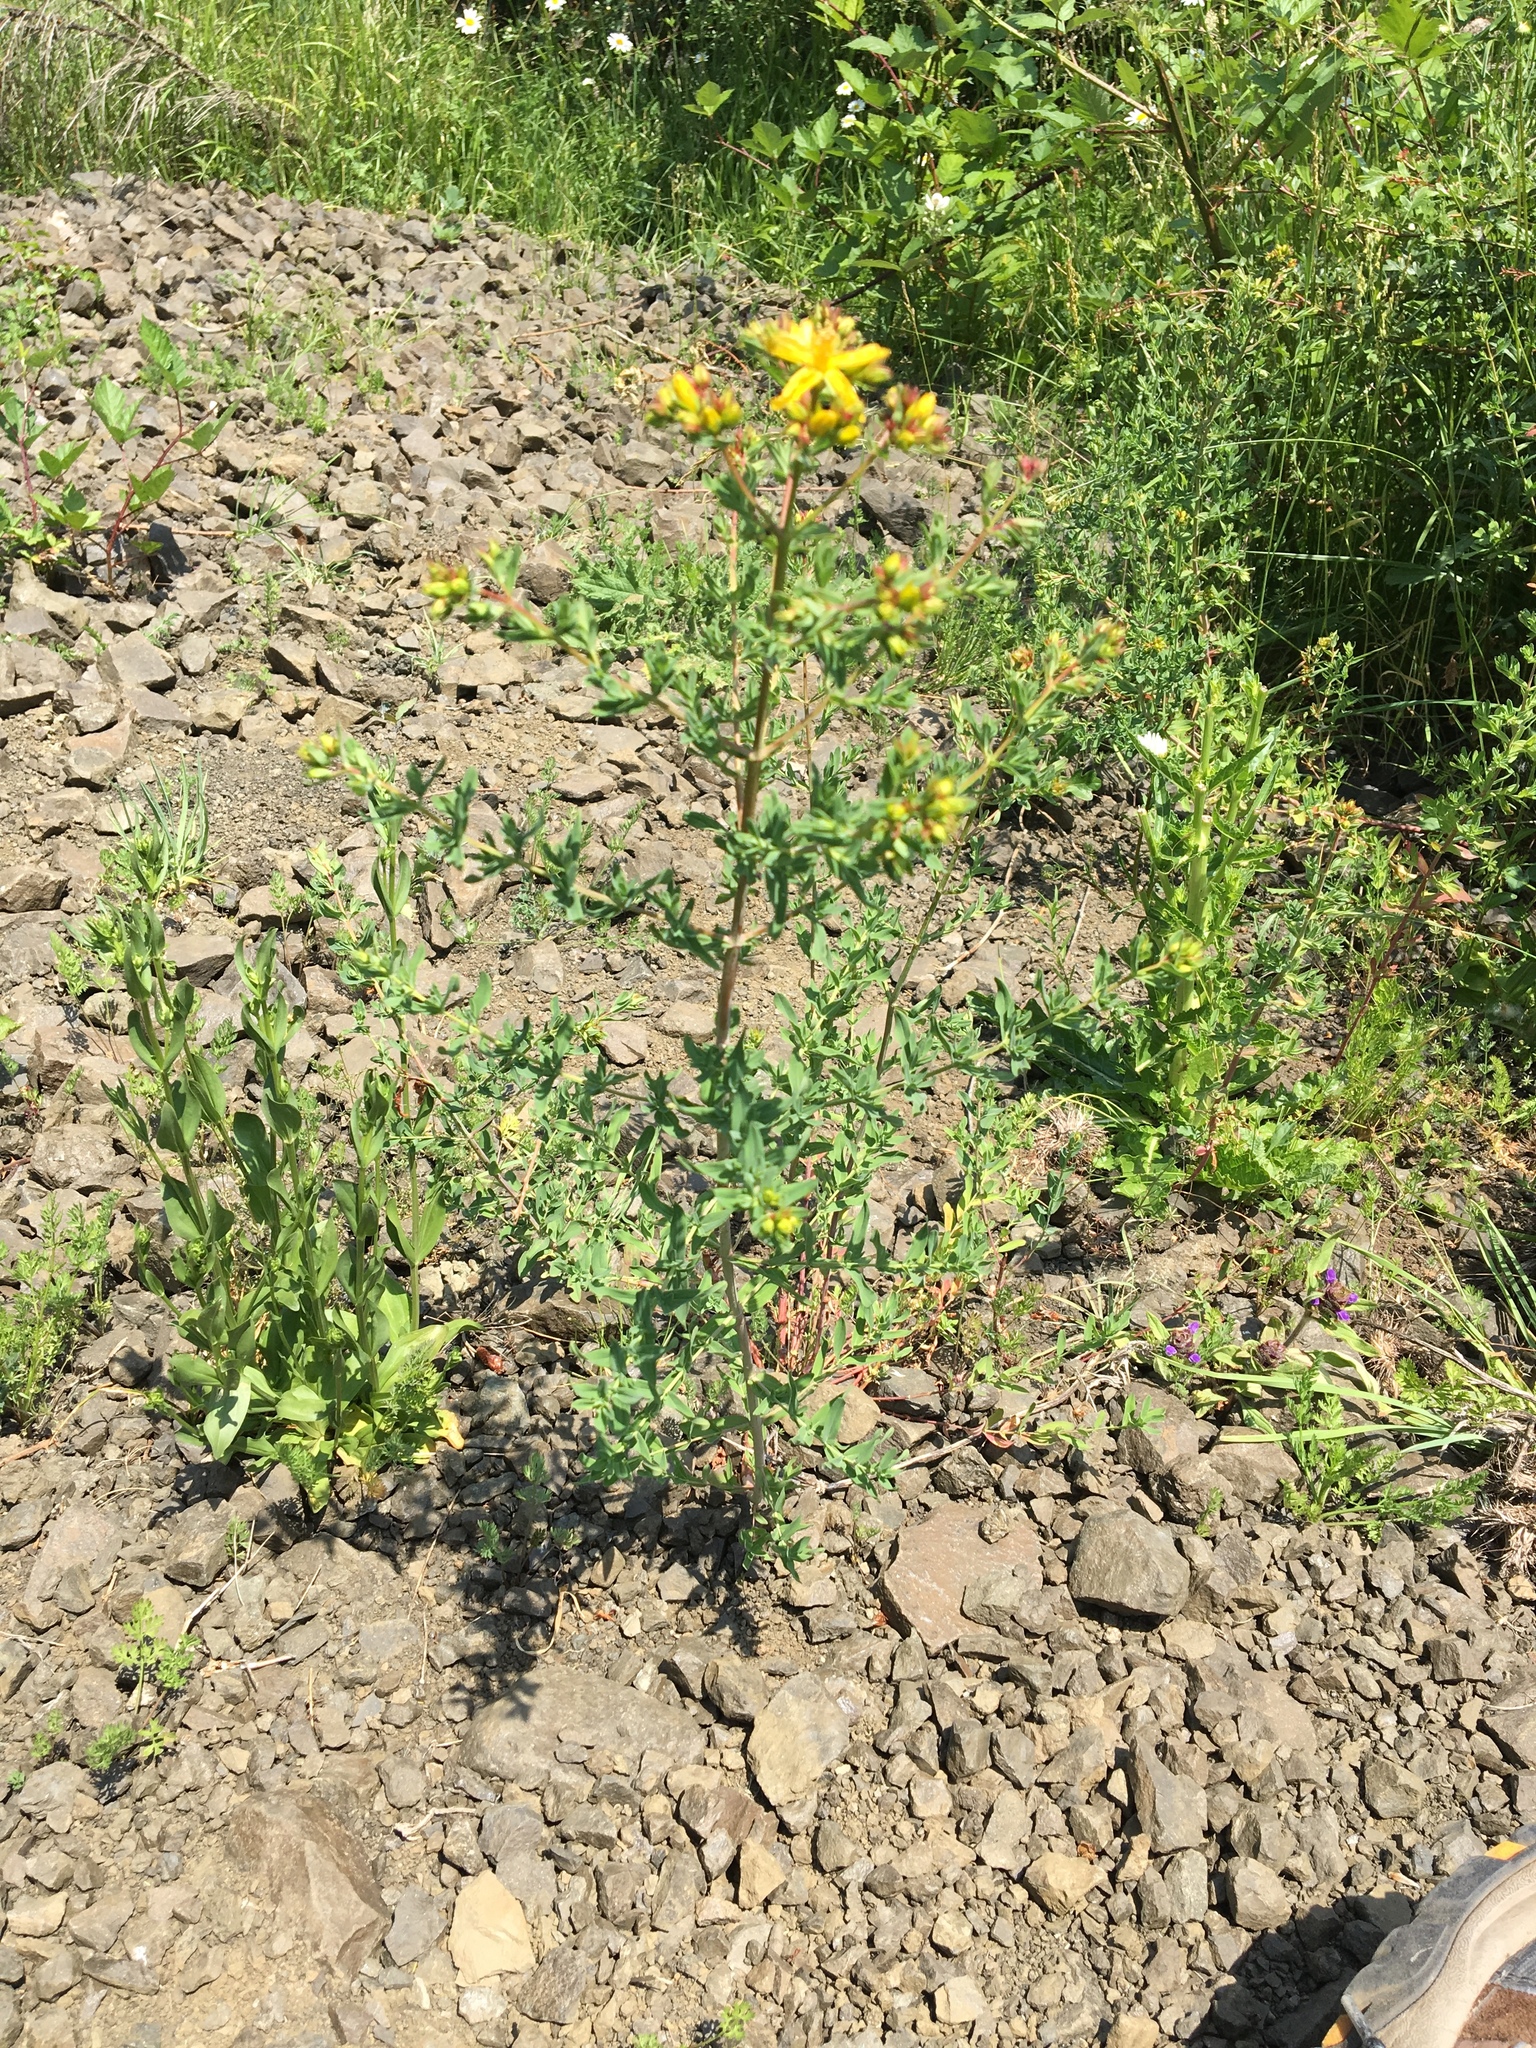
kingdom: Plantae
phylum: Tracheophyta
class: Magnoliopsida
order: Malpighiales
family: Hypericaceae
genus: Hypericum
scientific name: Hypericum perforatum
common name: Common st. johnswort
